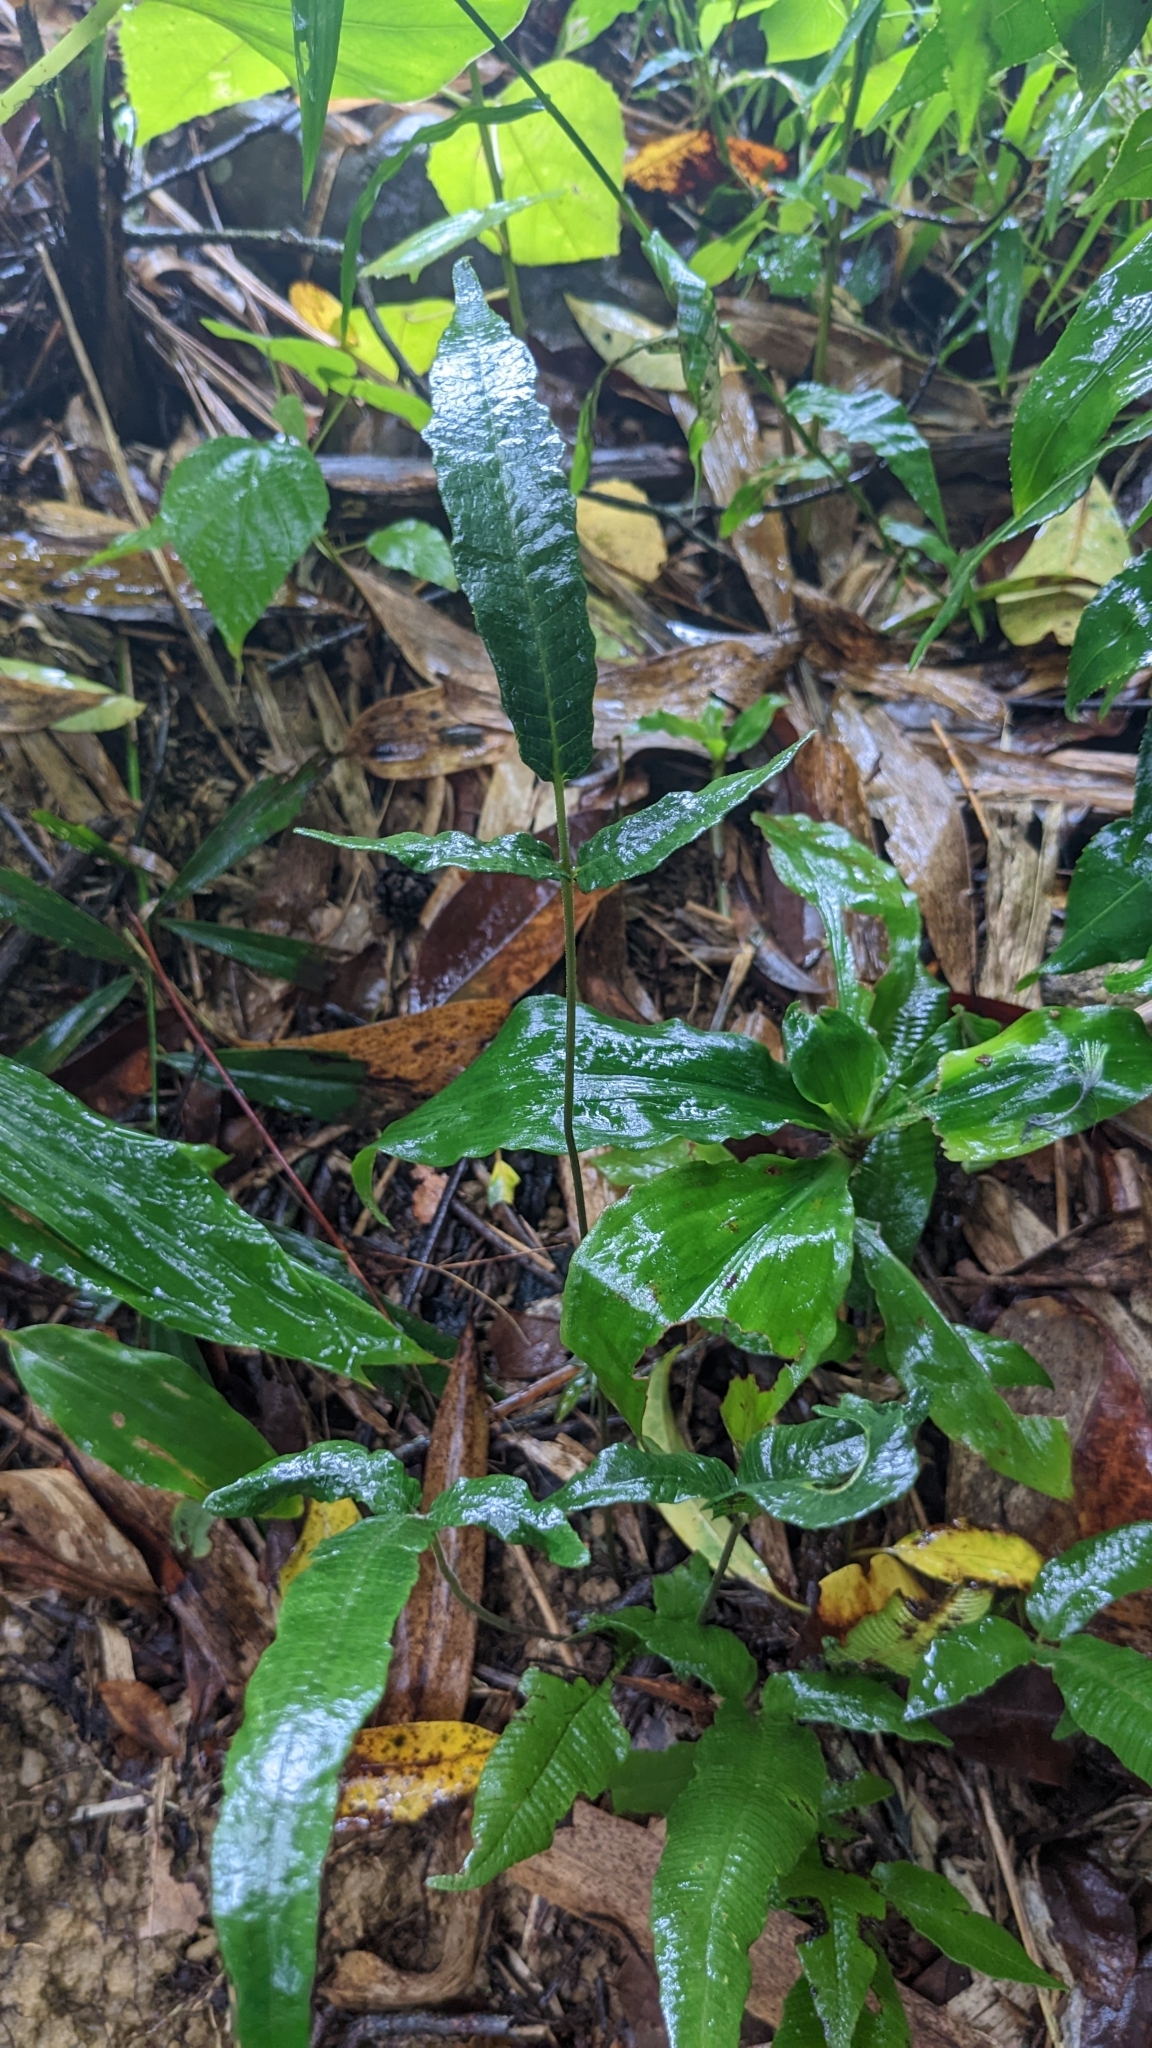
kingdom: Plantae
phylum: Tracheophyta
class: Polypodiopsida
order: Polypodiales
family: Thelypteridaceae
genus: Grypothrix
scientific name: Grypothrix triphylla
